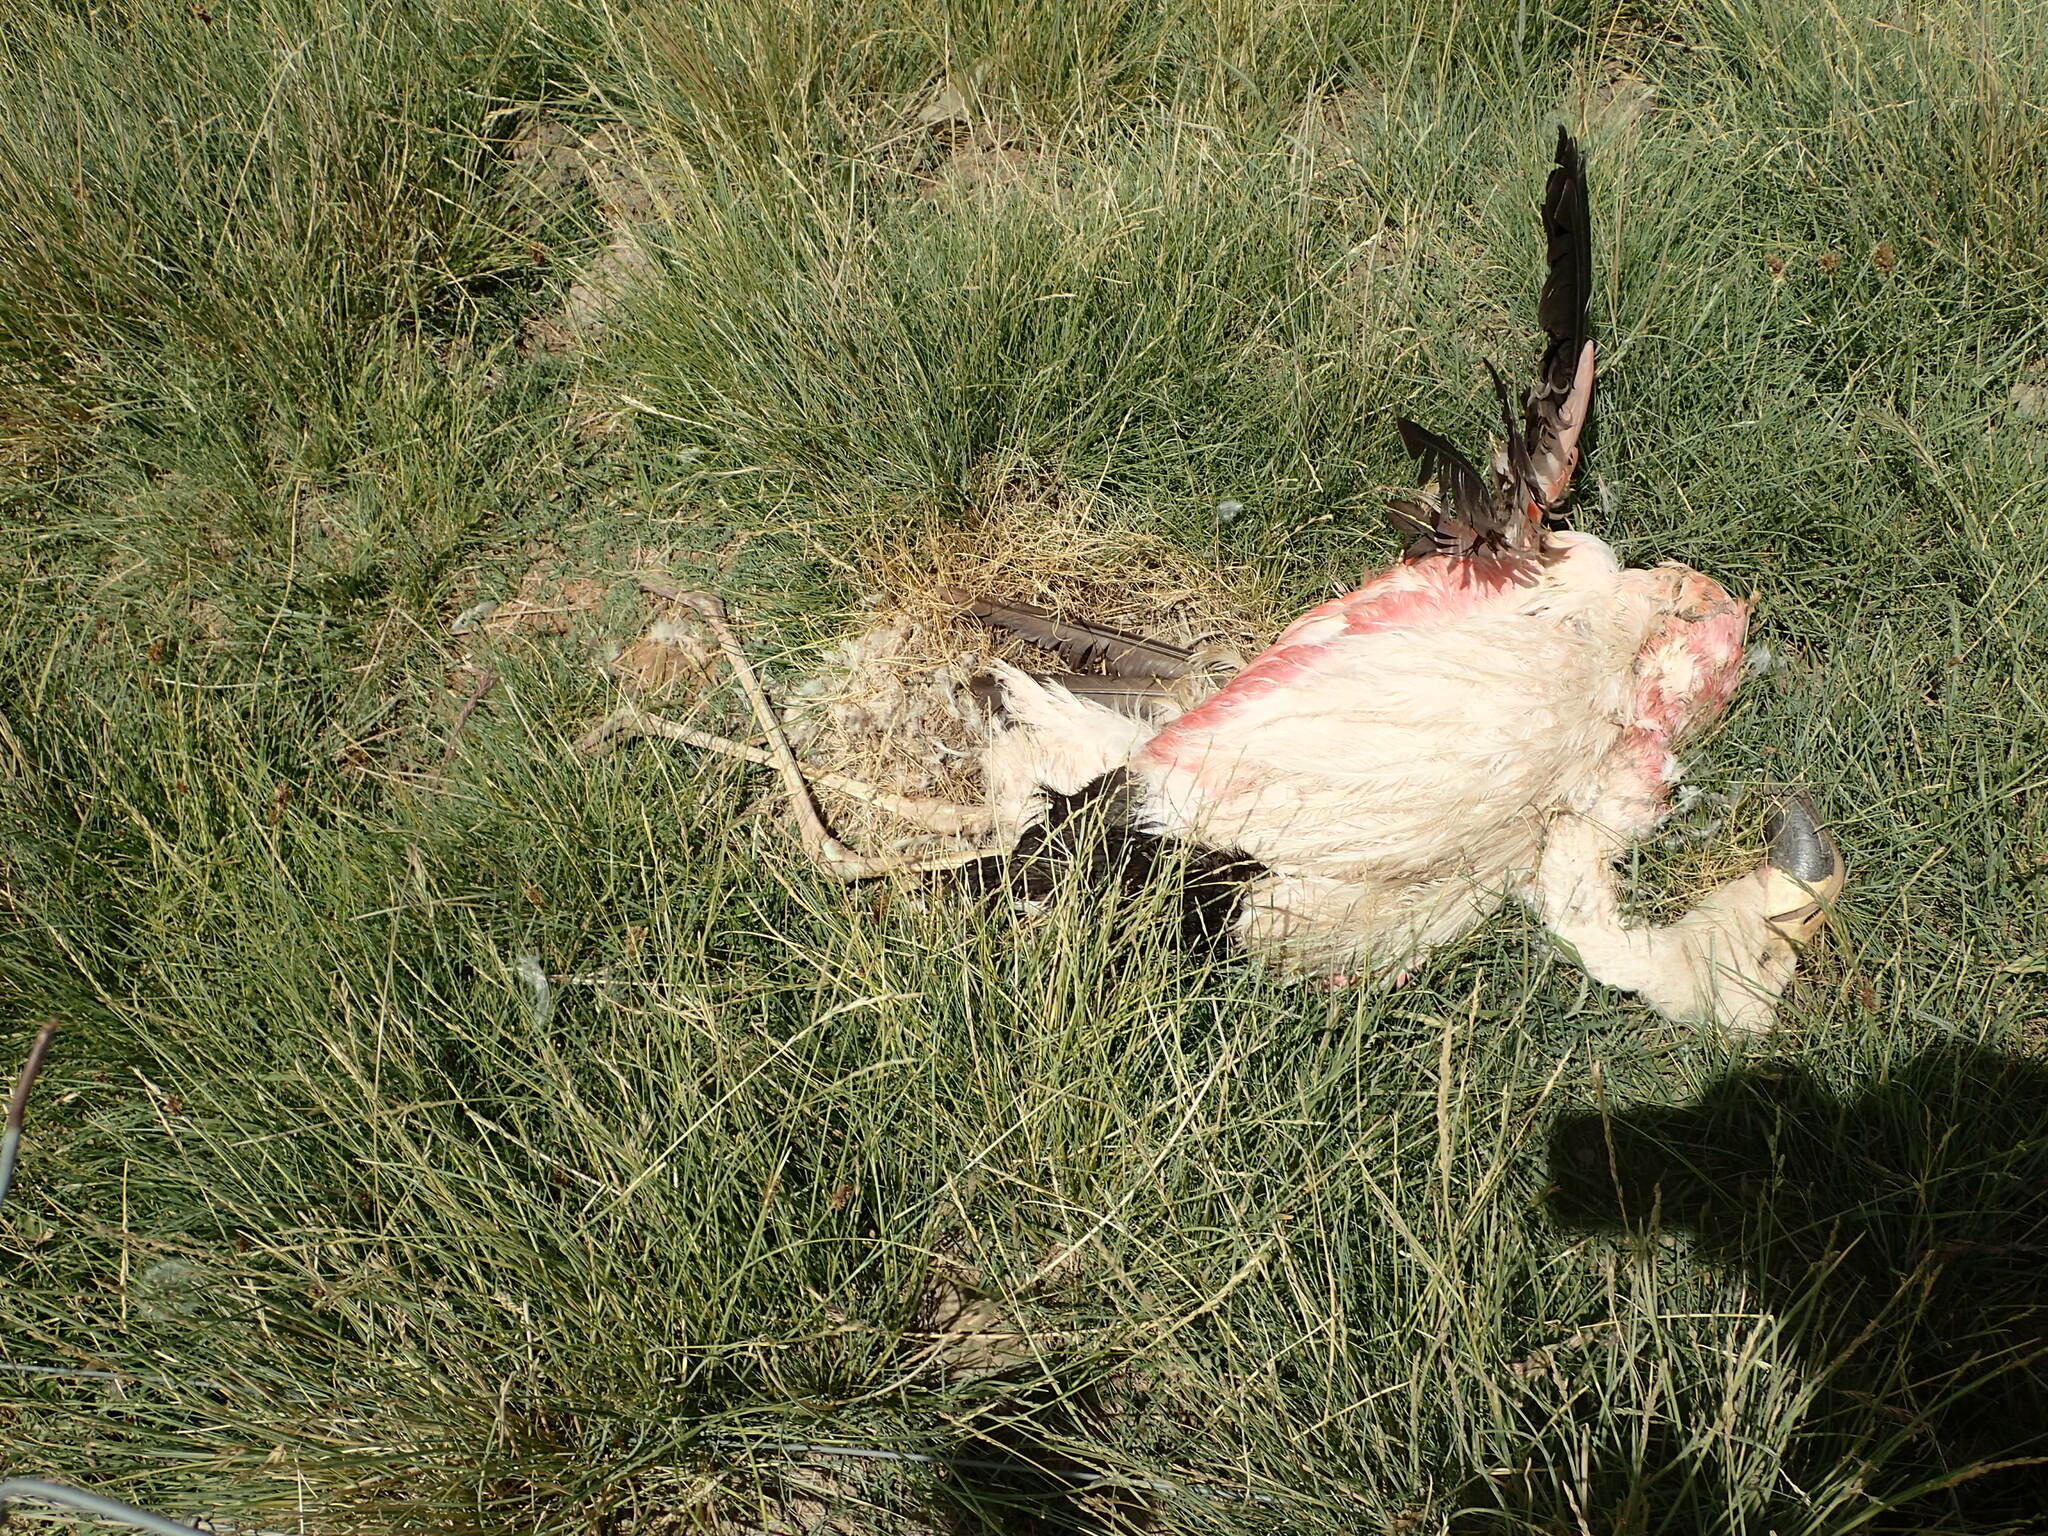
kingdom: Animalia
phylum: Chordata
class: Aves
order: Phoenicopteriformes
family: Phoenicopteridae
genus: Phoenicoparrus
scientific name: Phoenicoparrus andinus
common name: Andean flamingo
